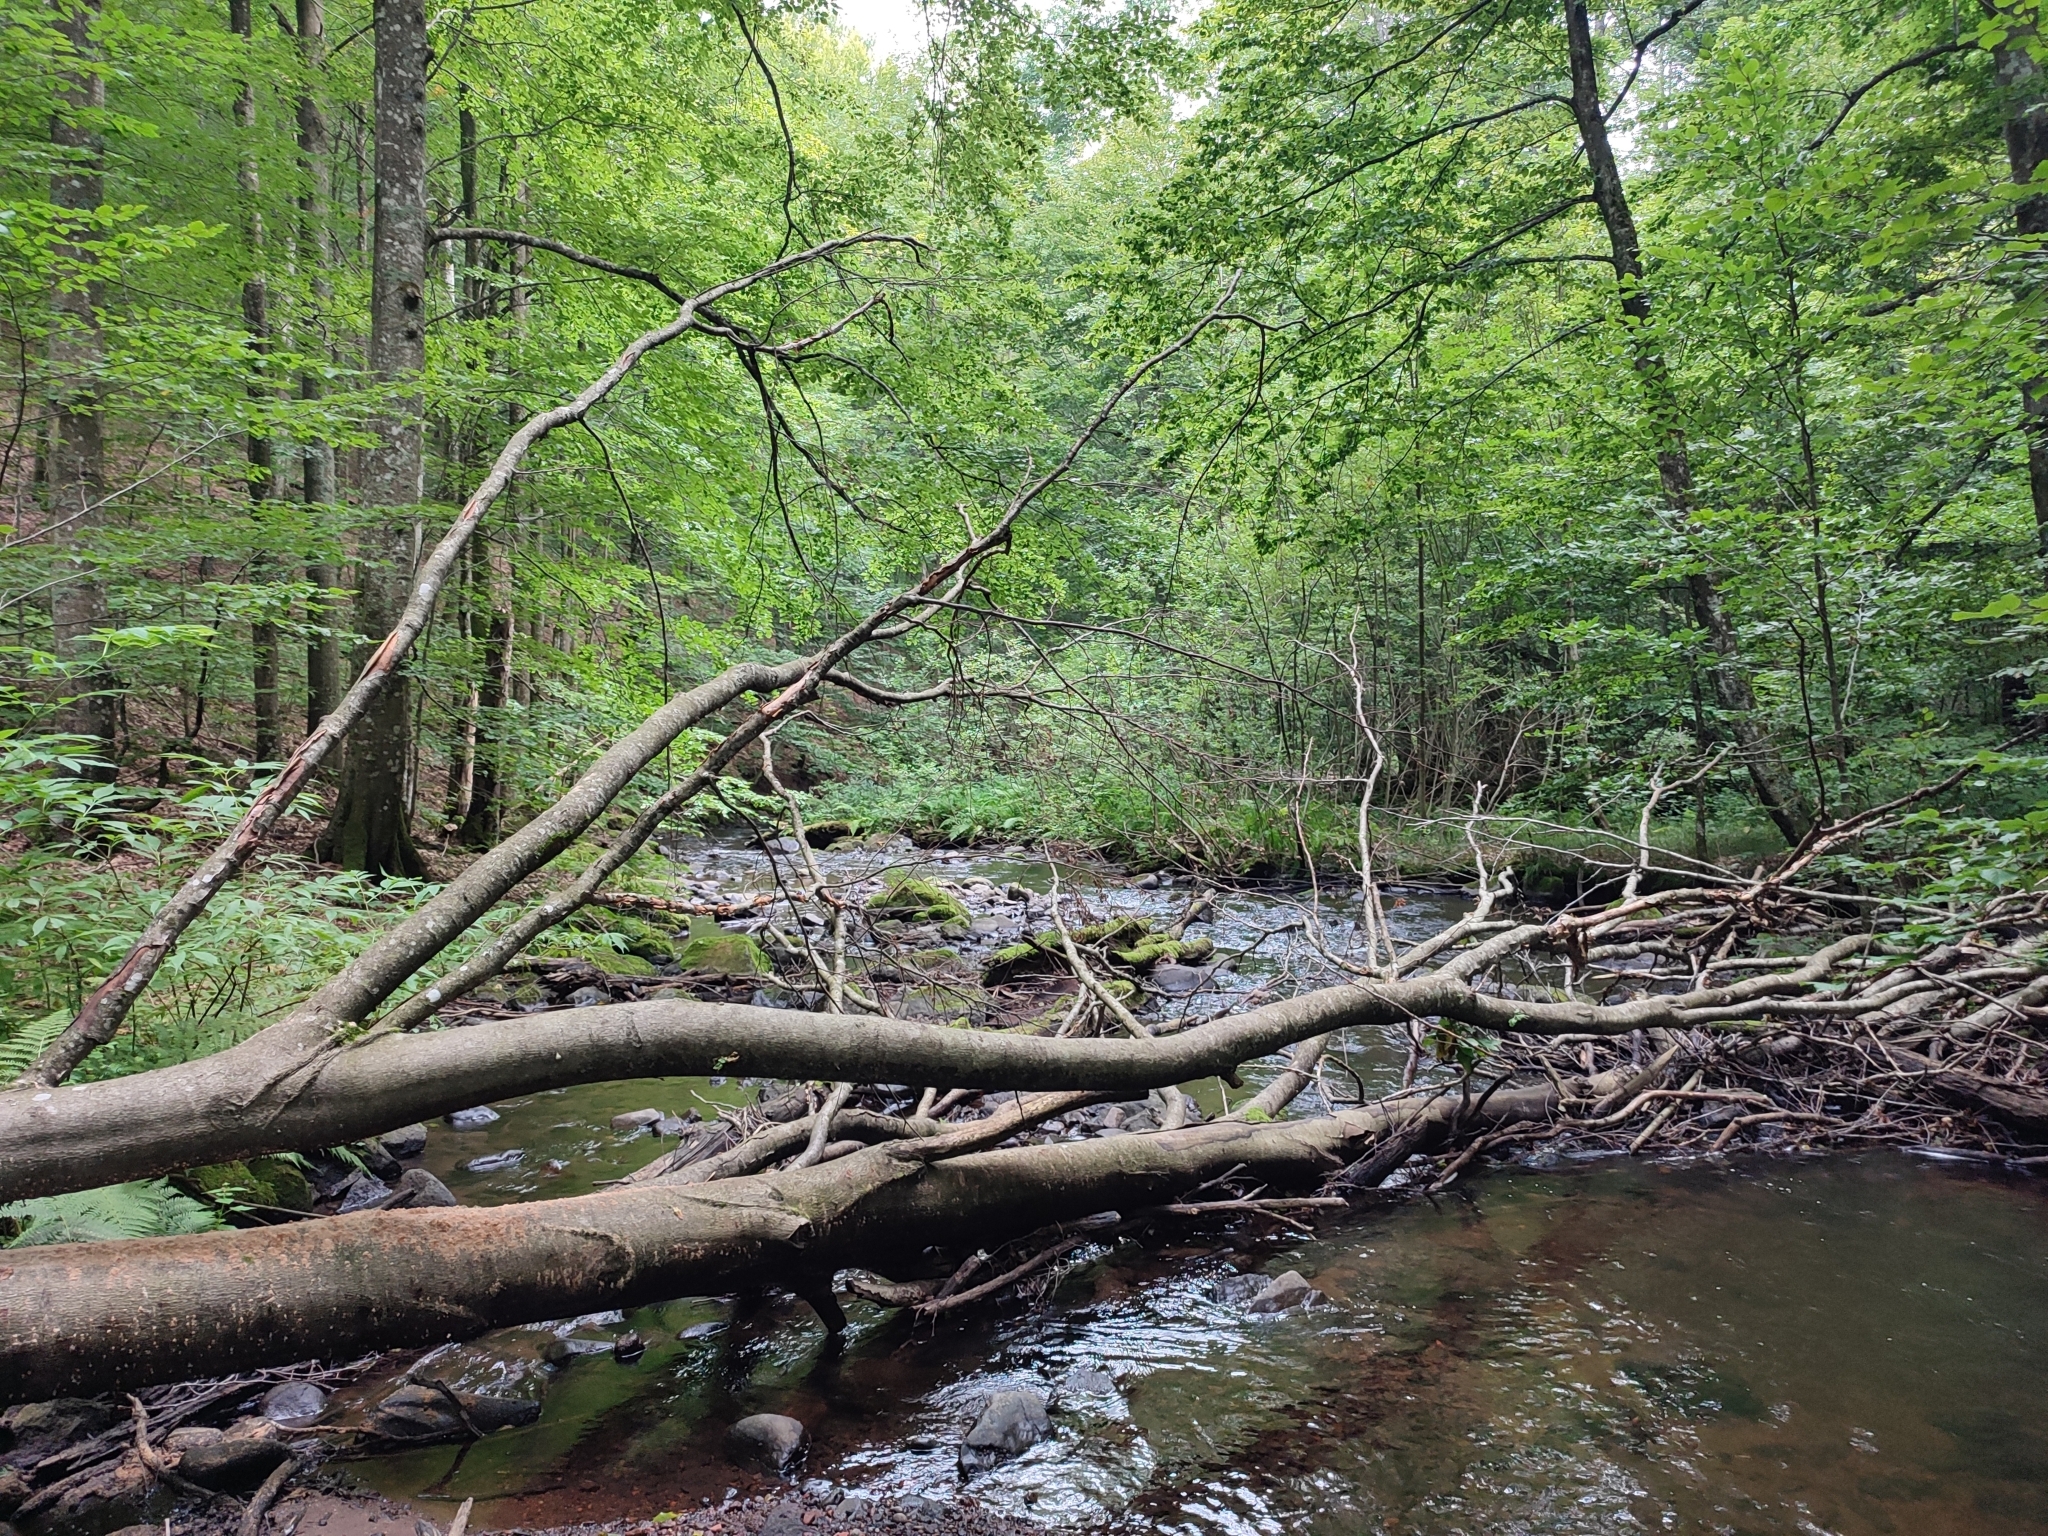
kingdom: Plantae
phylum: Tracheophyta
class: Magnoliopsida
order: Fagales
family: Fagaceae
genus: Fagus
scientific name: Fagus sylvatica
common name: Beech
